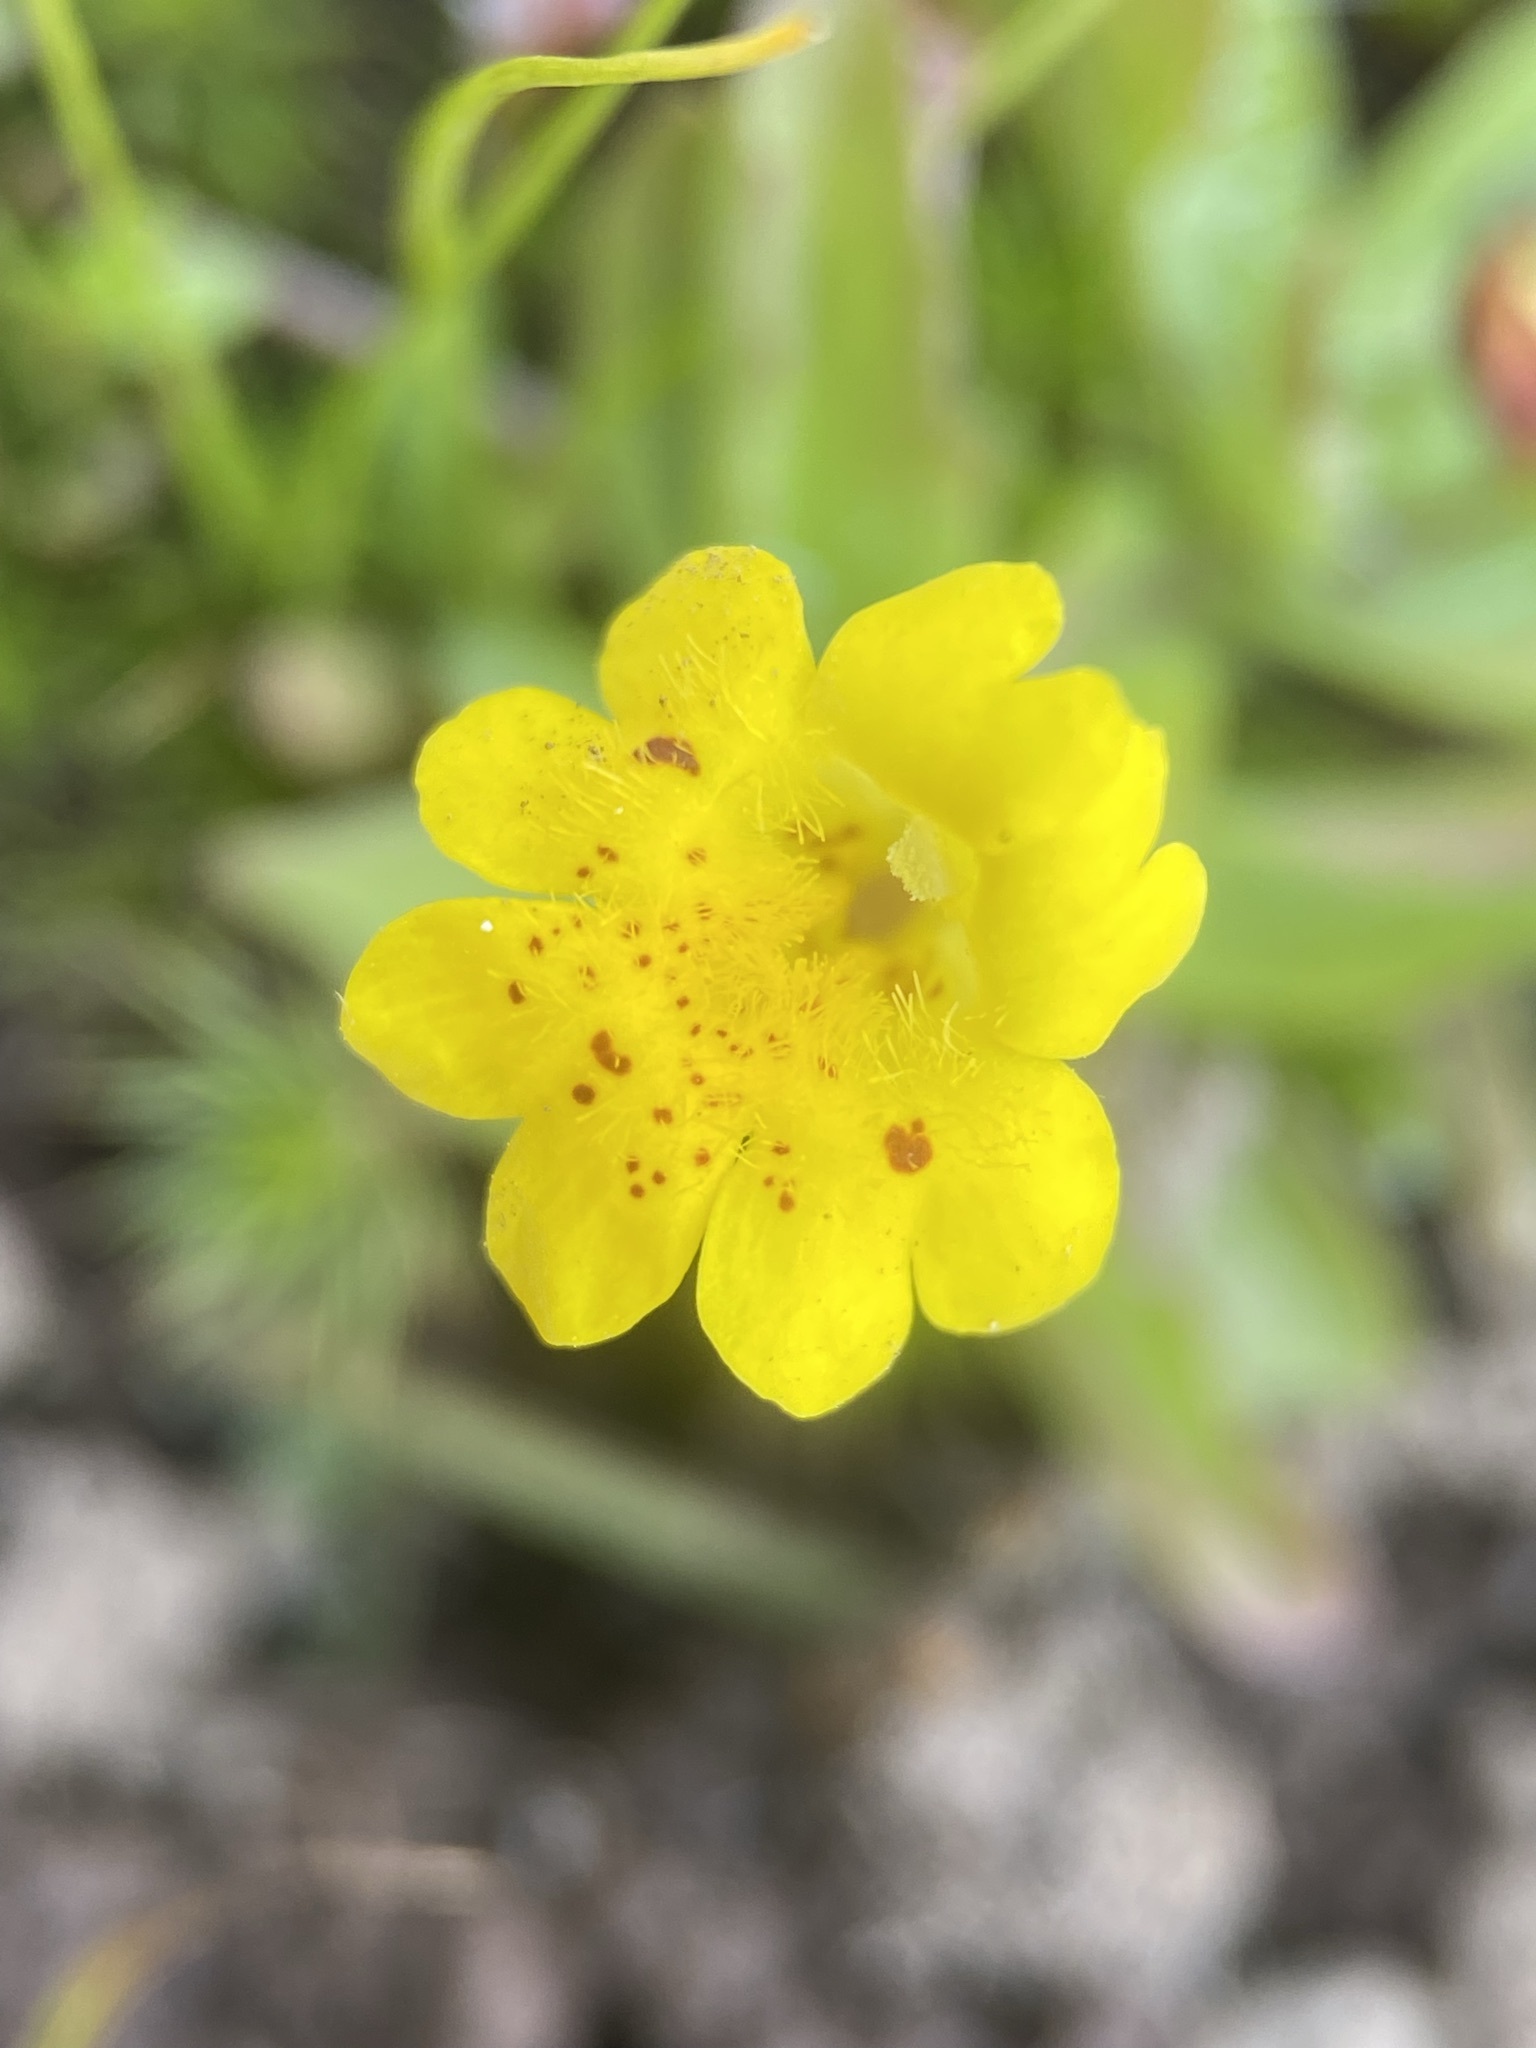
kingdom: Plantae
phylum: Tracheophyta
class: Magnoliopsida
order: Lamiales
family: Phrymaceae
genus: Erythranthe
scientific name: Erythranthe primuloides
